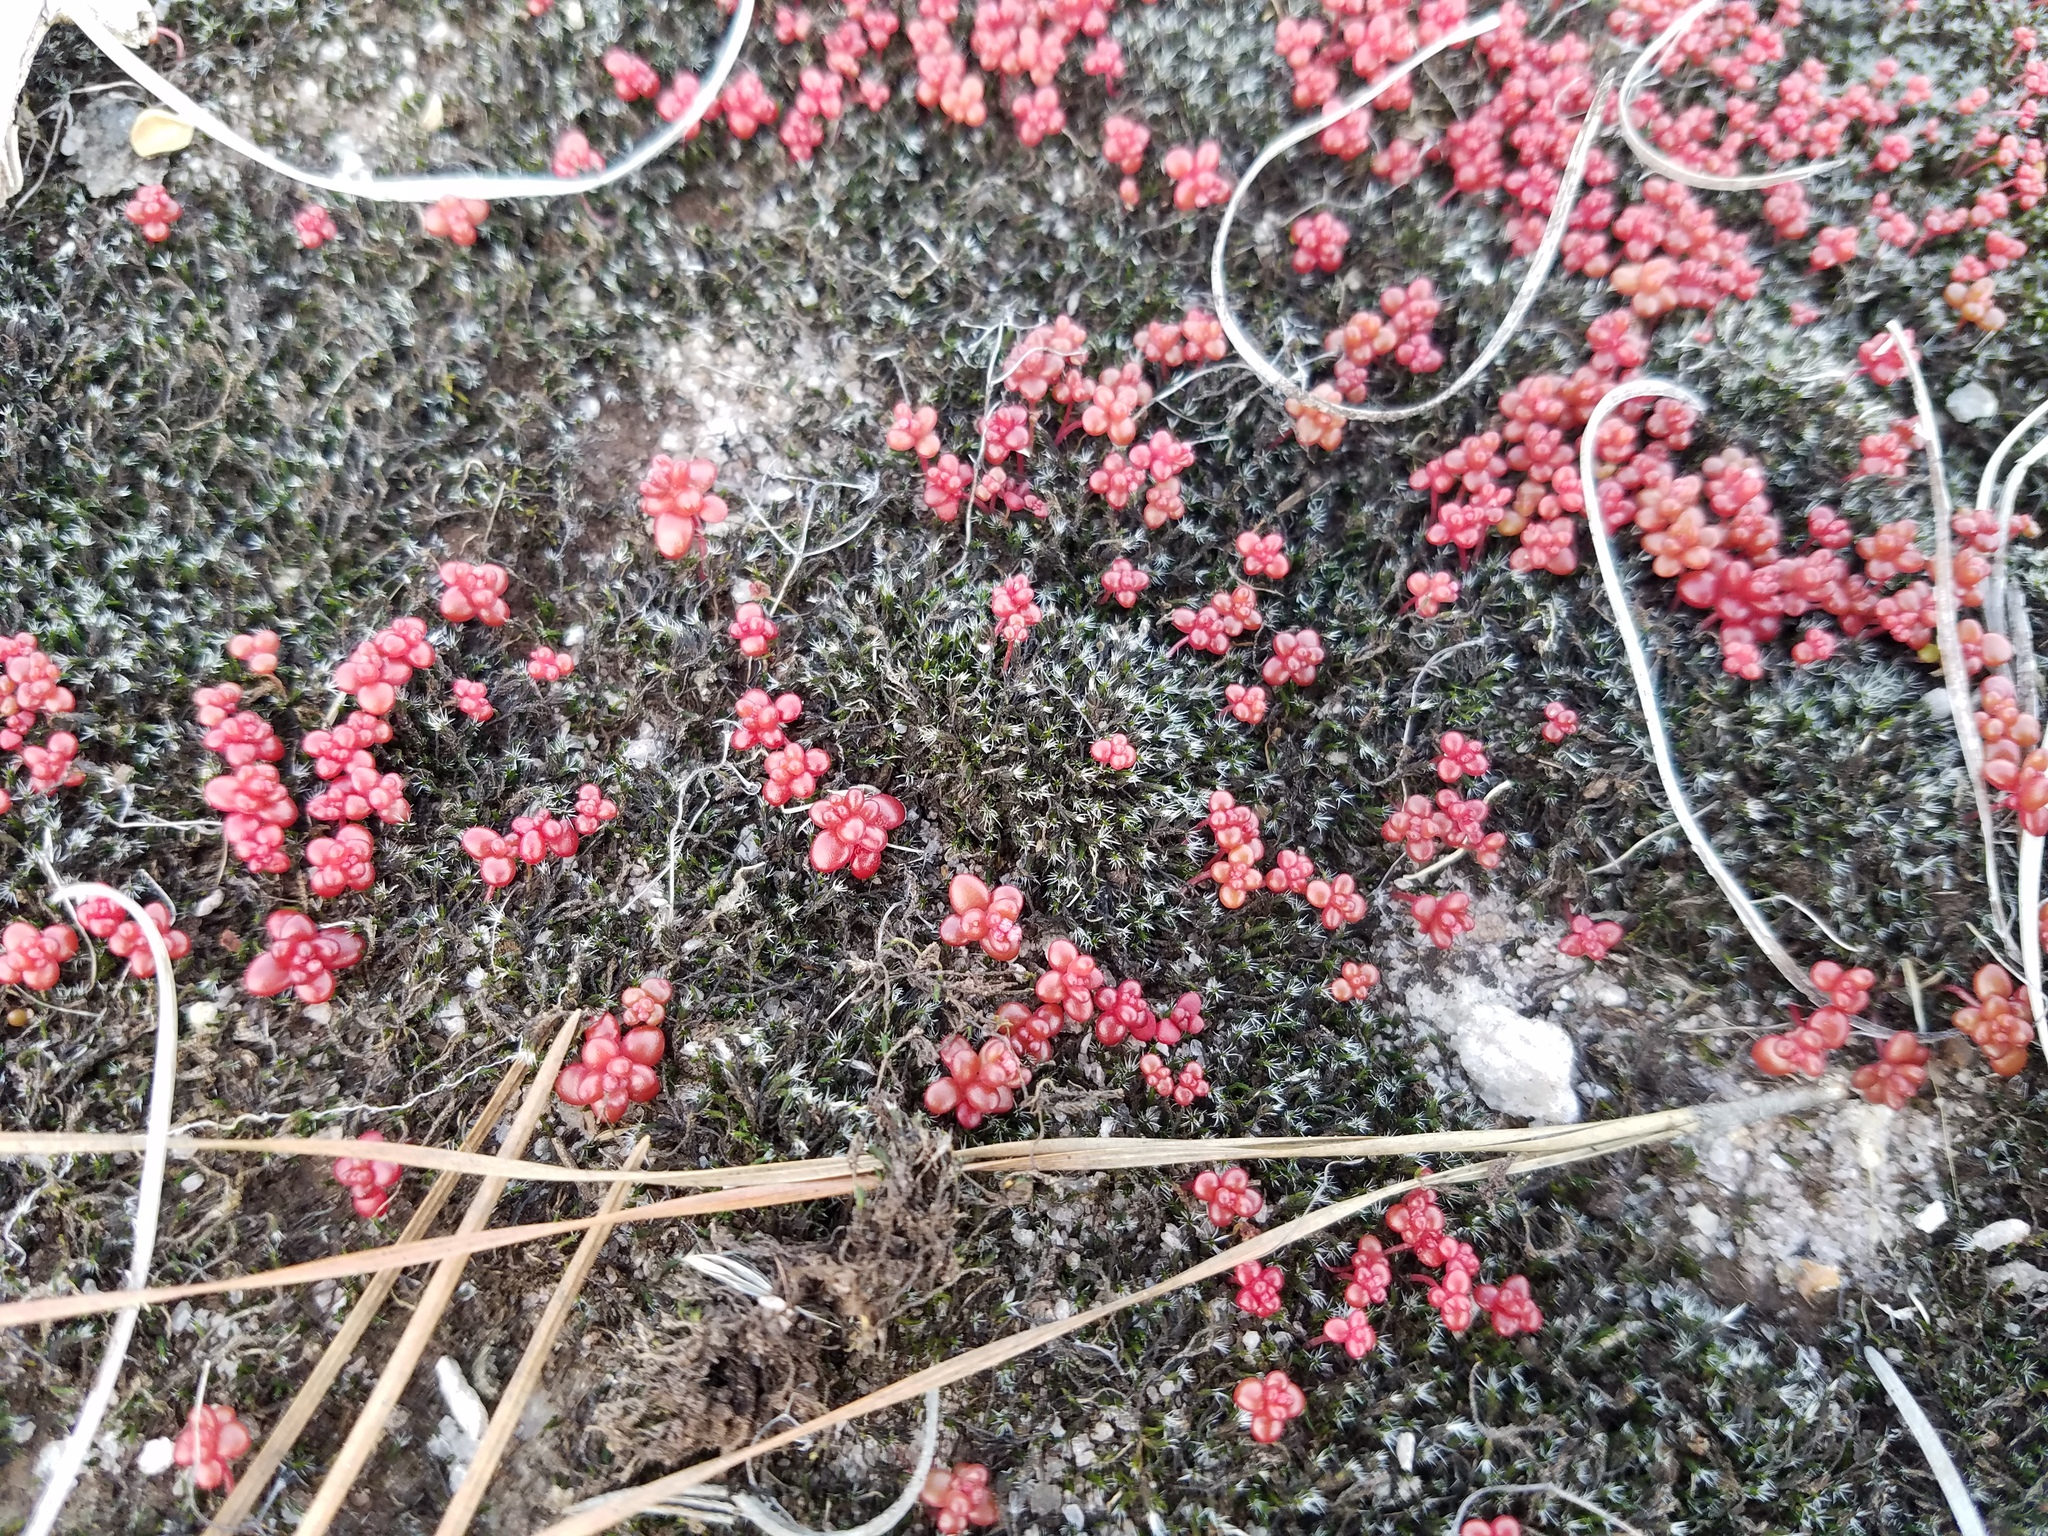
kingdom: Plantae
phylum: Tracheophyta
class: Magnoliopsida
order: Saxifragales
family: Crassulaceae
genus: Sedum
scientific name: Sedum smallii
